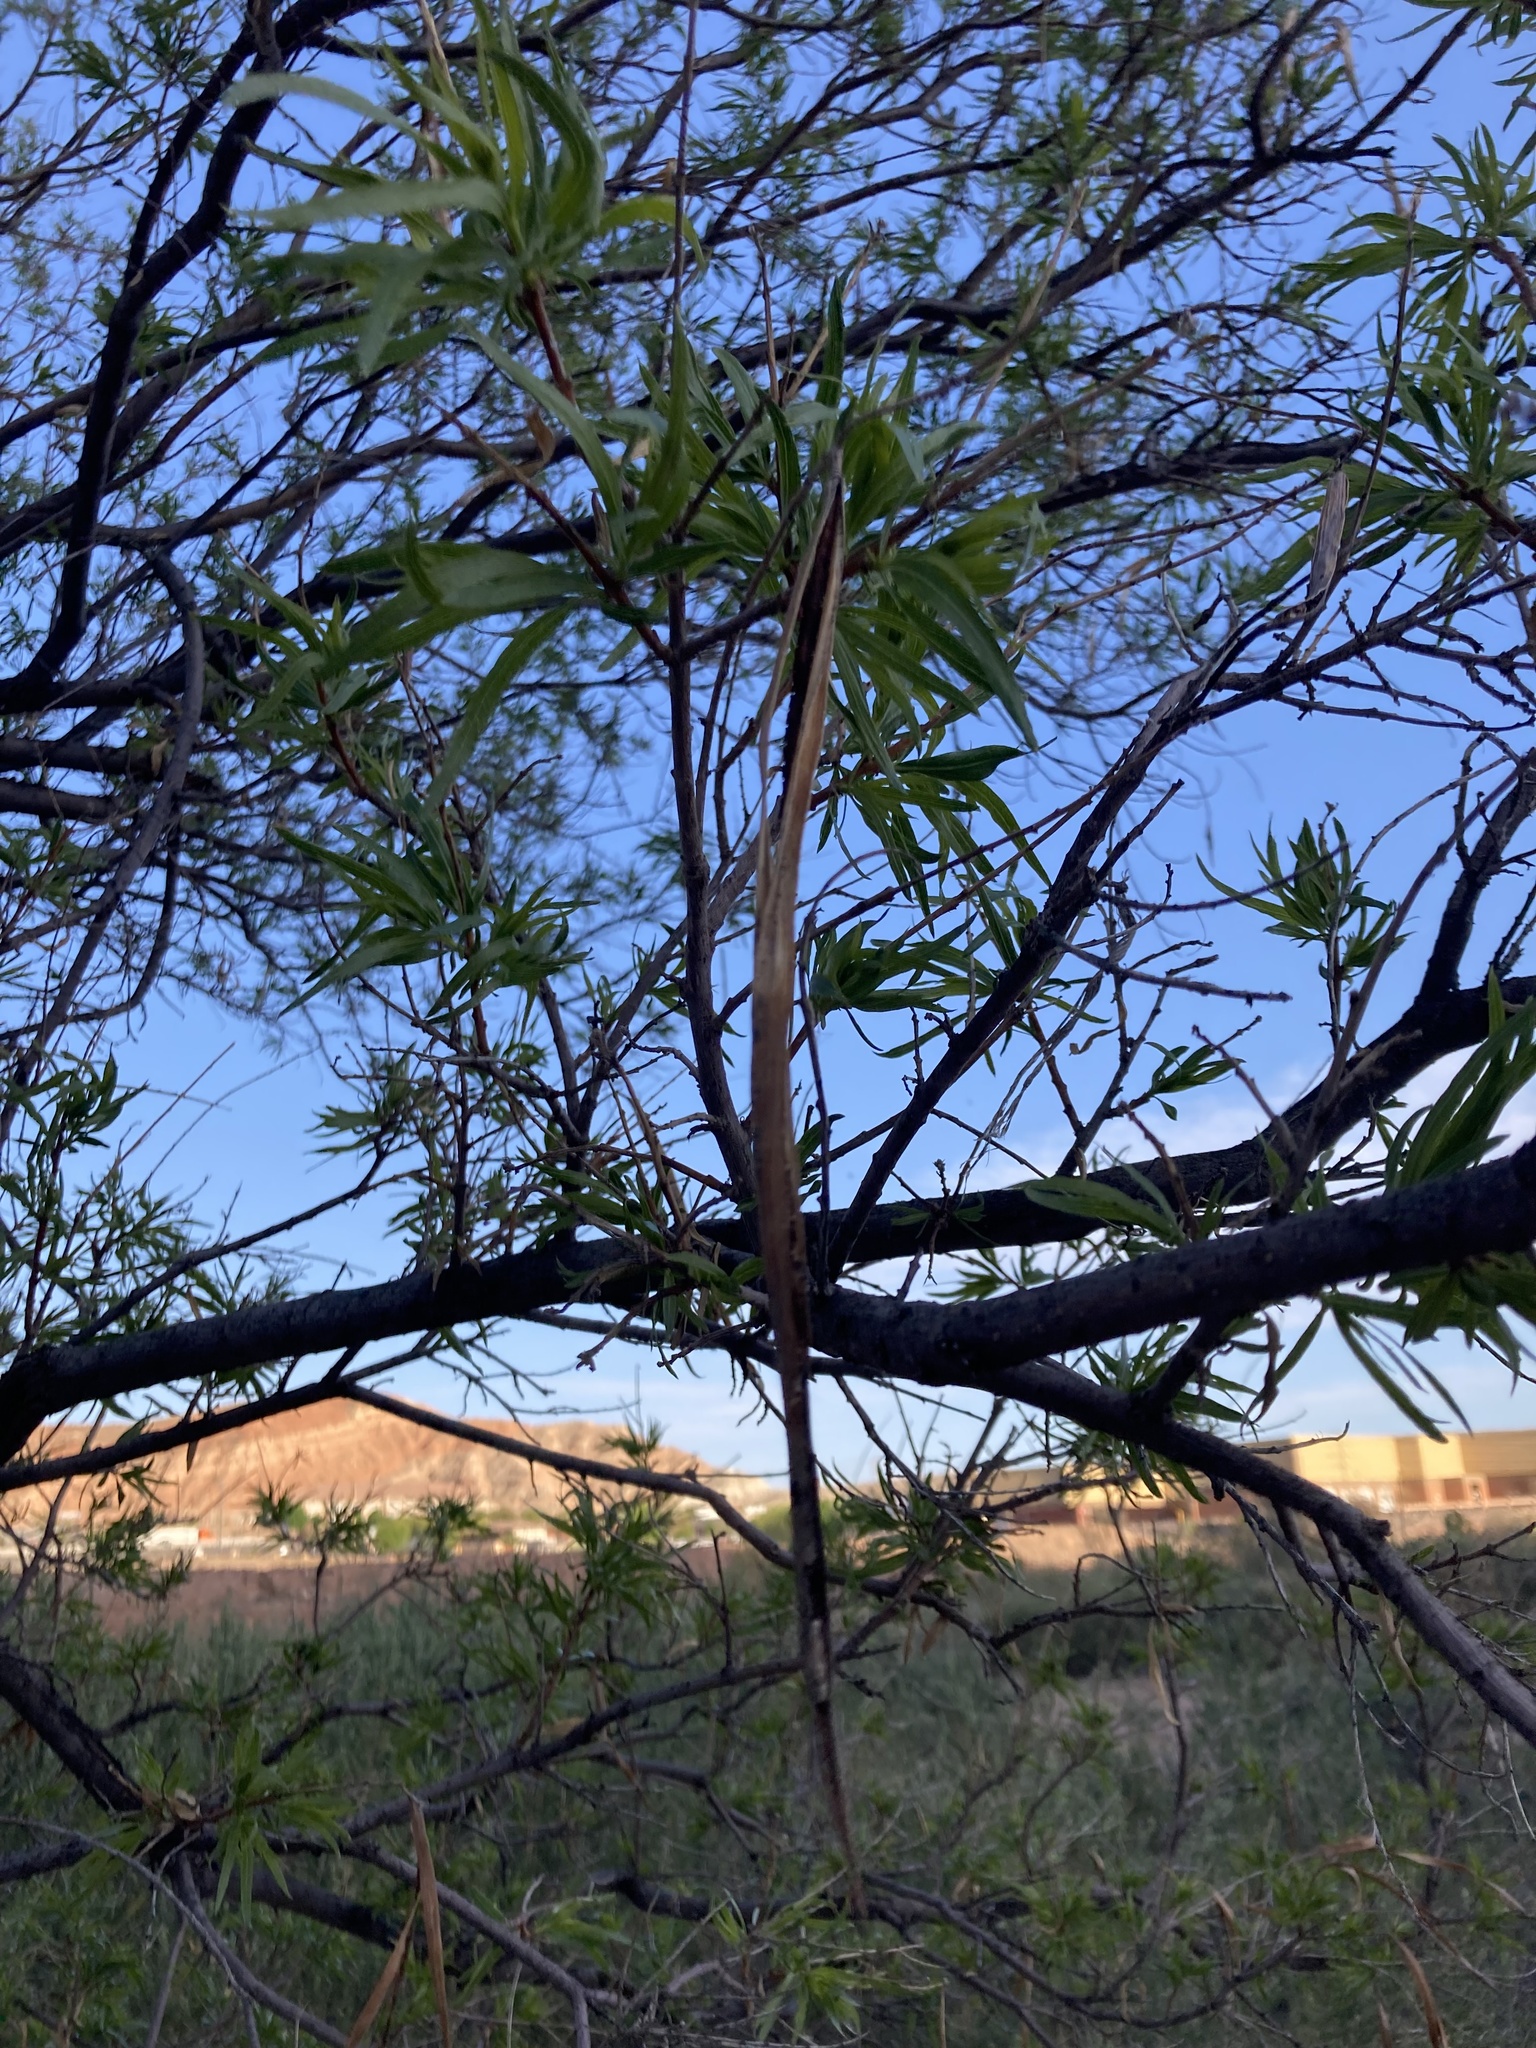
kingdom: Plantae
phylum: Tracheophyta
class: Magnoliopsida
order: Lamiales
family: Bignoniaceae
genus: Chilopsis
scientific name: Chilopsis linearis
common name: Desert-willow
